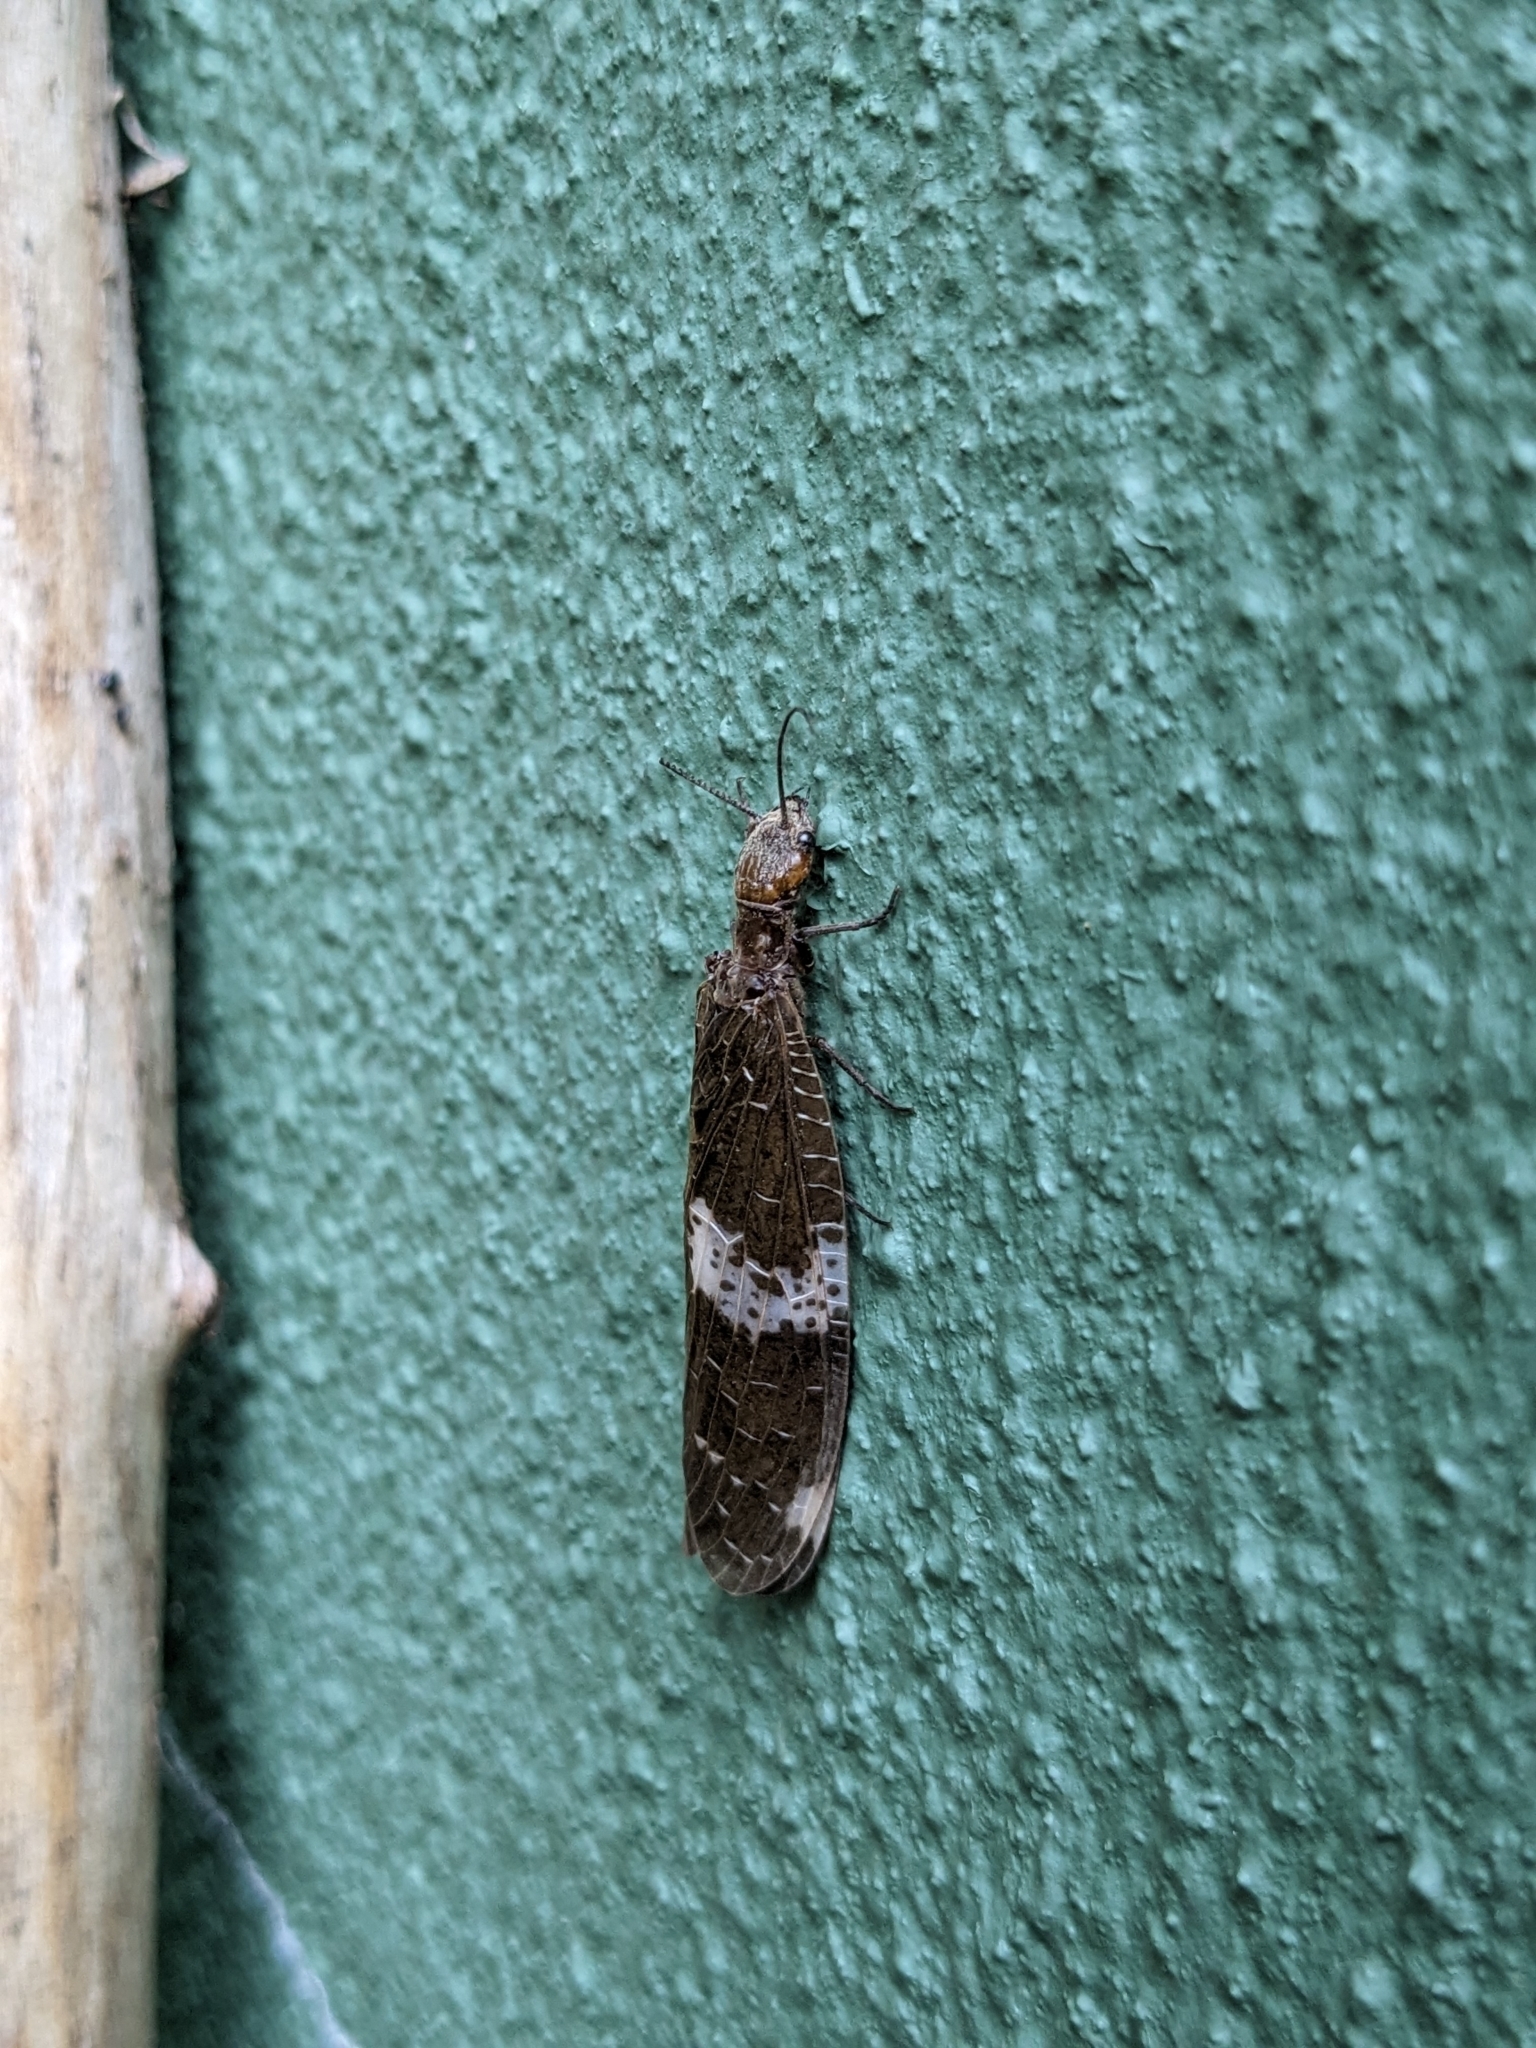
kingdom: Animalia
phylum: Arthropoda
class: Insecta
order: Megaloptera
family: Corydalidae
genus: Nigronia
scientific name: Nigronia fasciata
